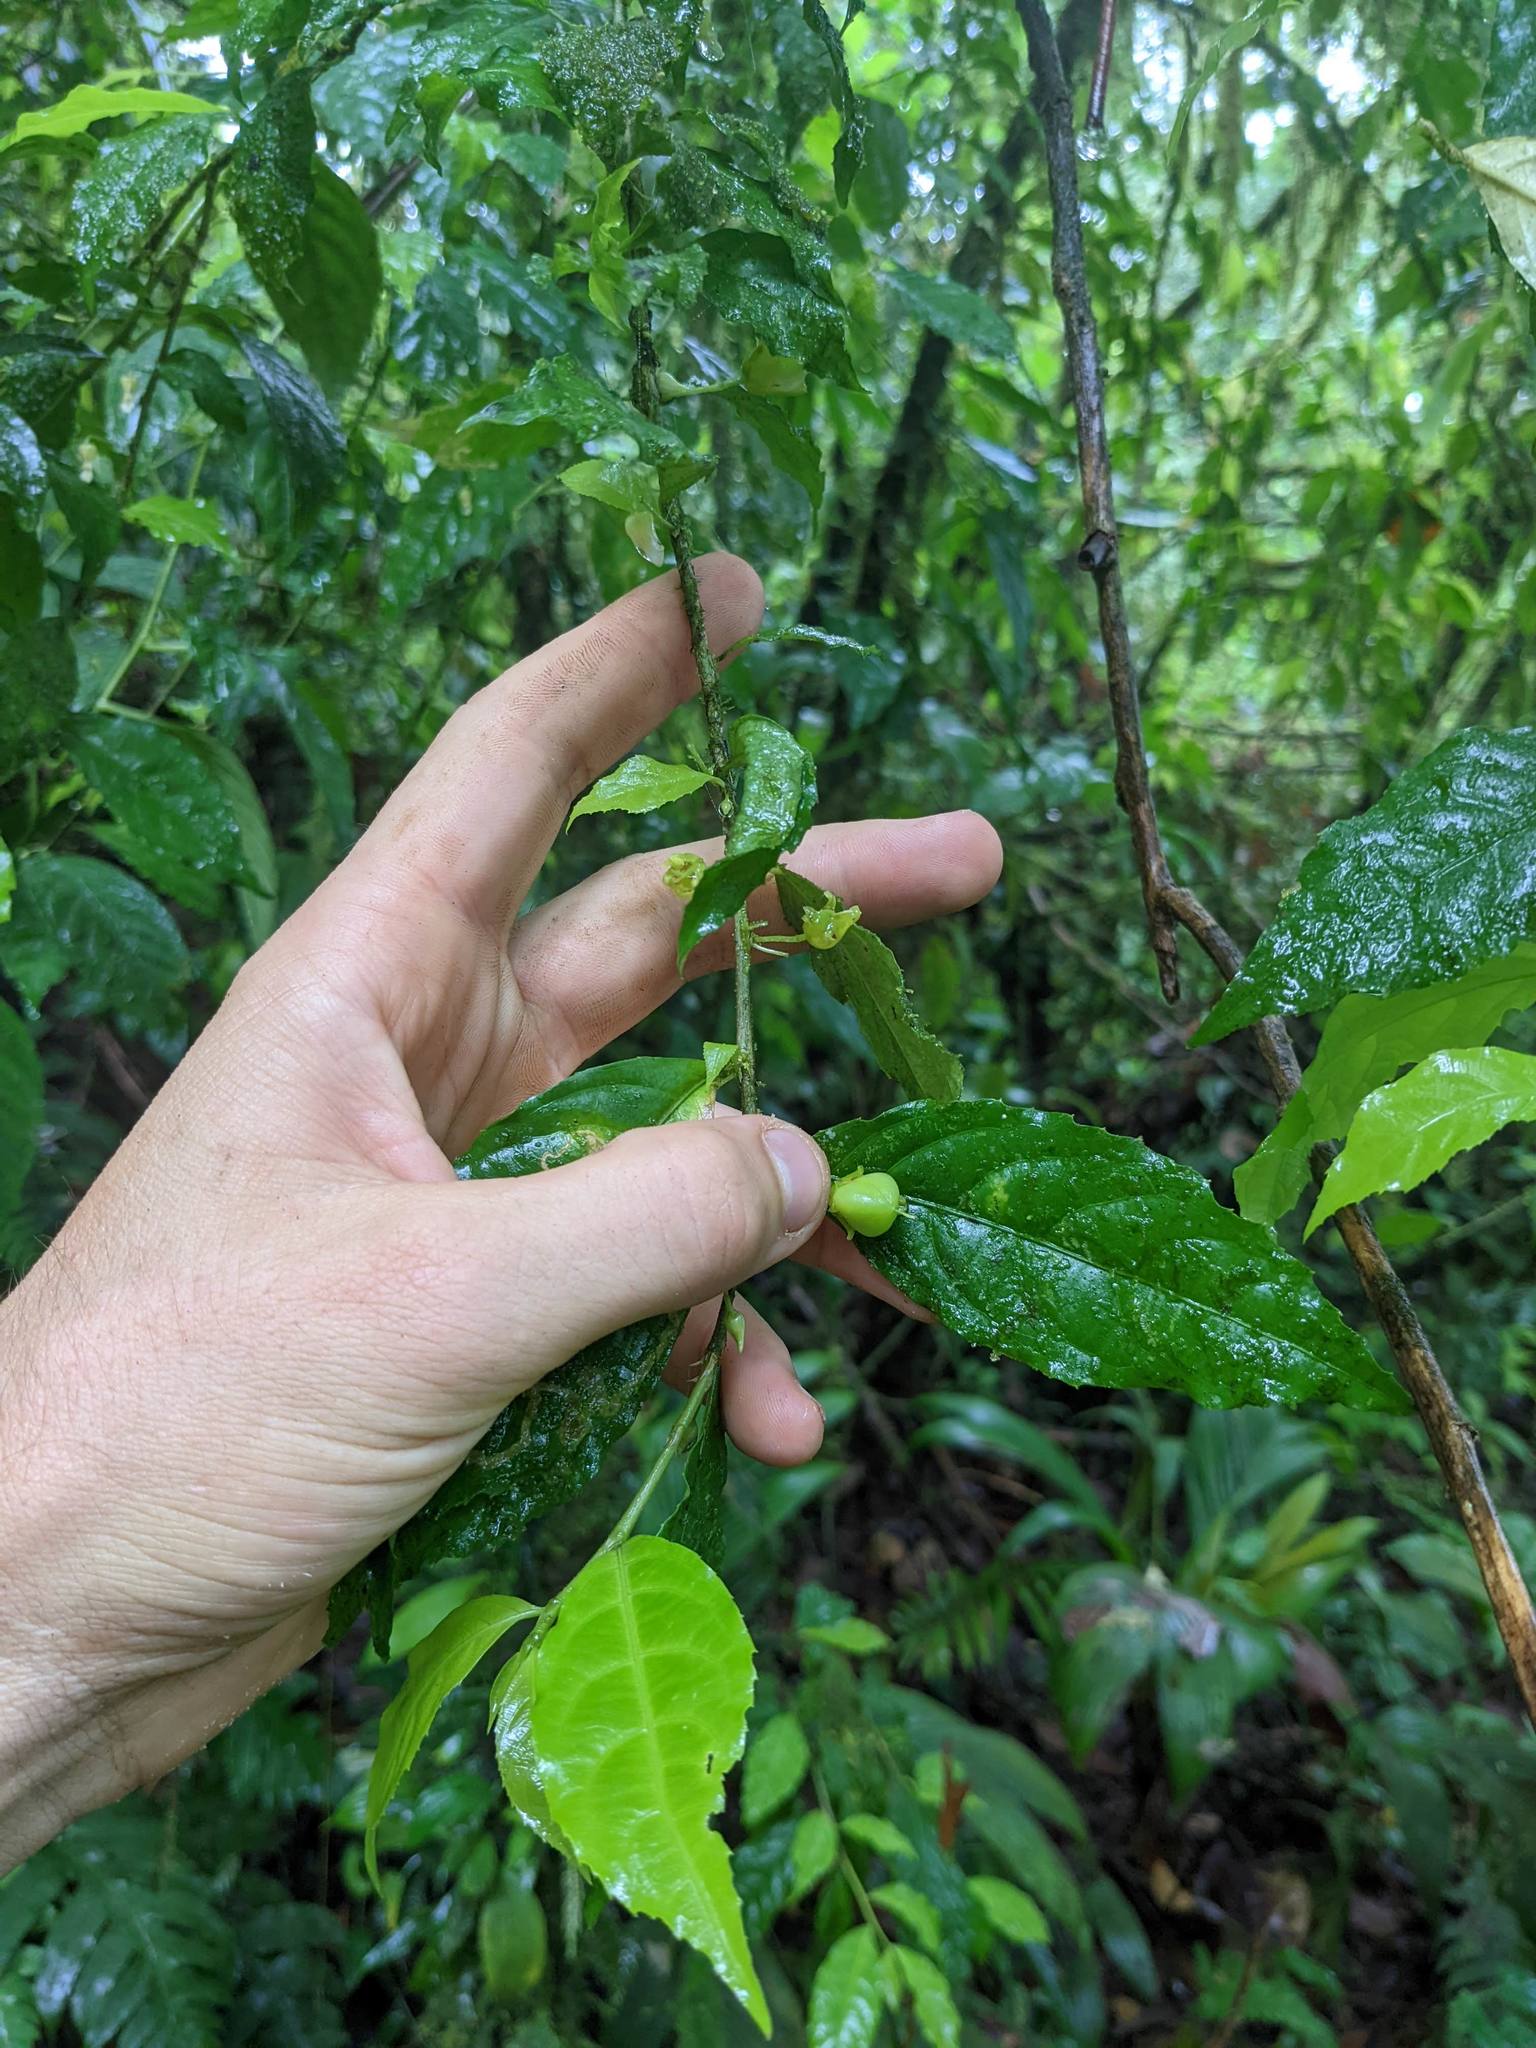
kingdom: Plantae
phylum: Tracheophyta
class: Magnoliopsida
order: Malpighiales
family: Violaceae
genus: Hybanthus
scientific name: Hybanthus guanacastensis
